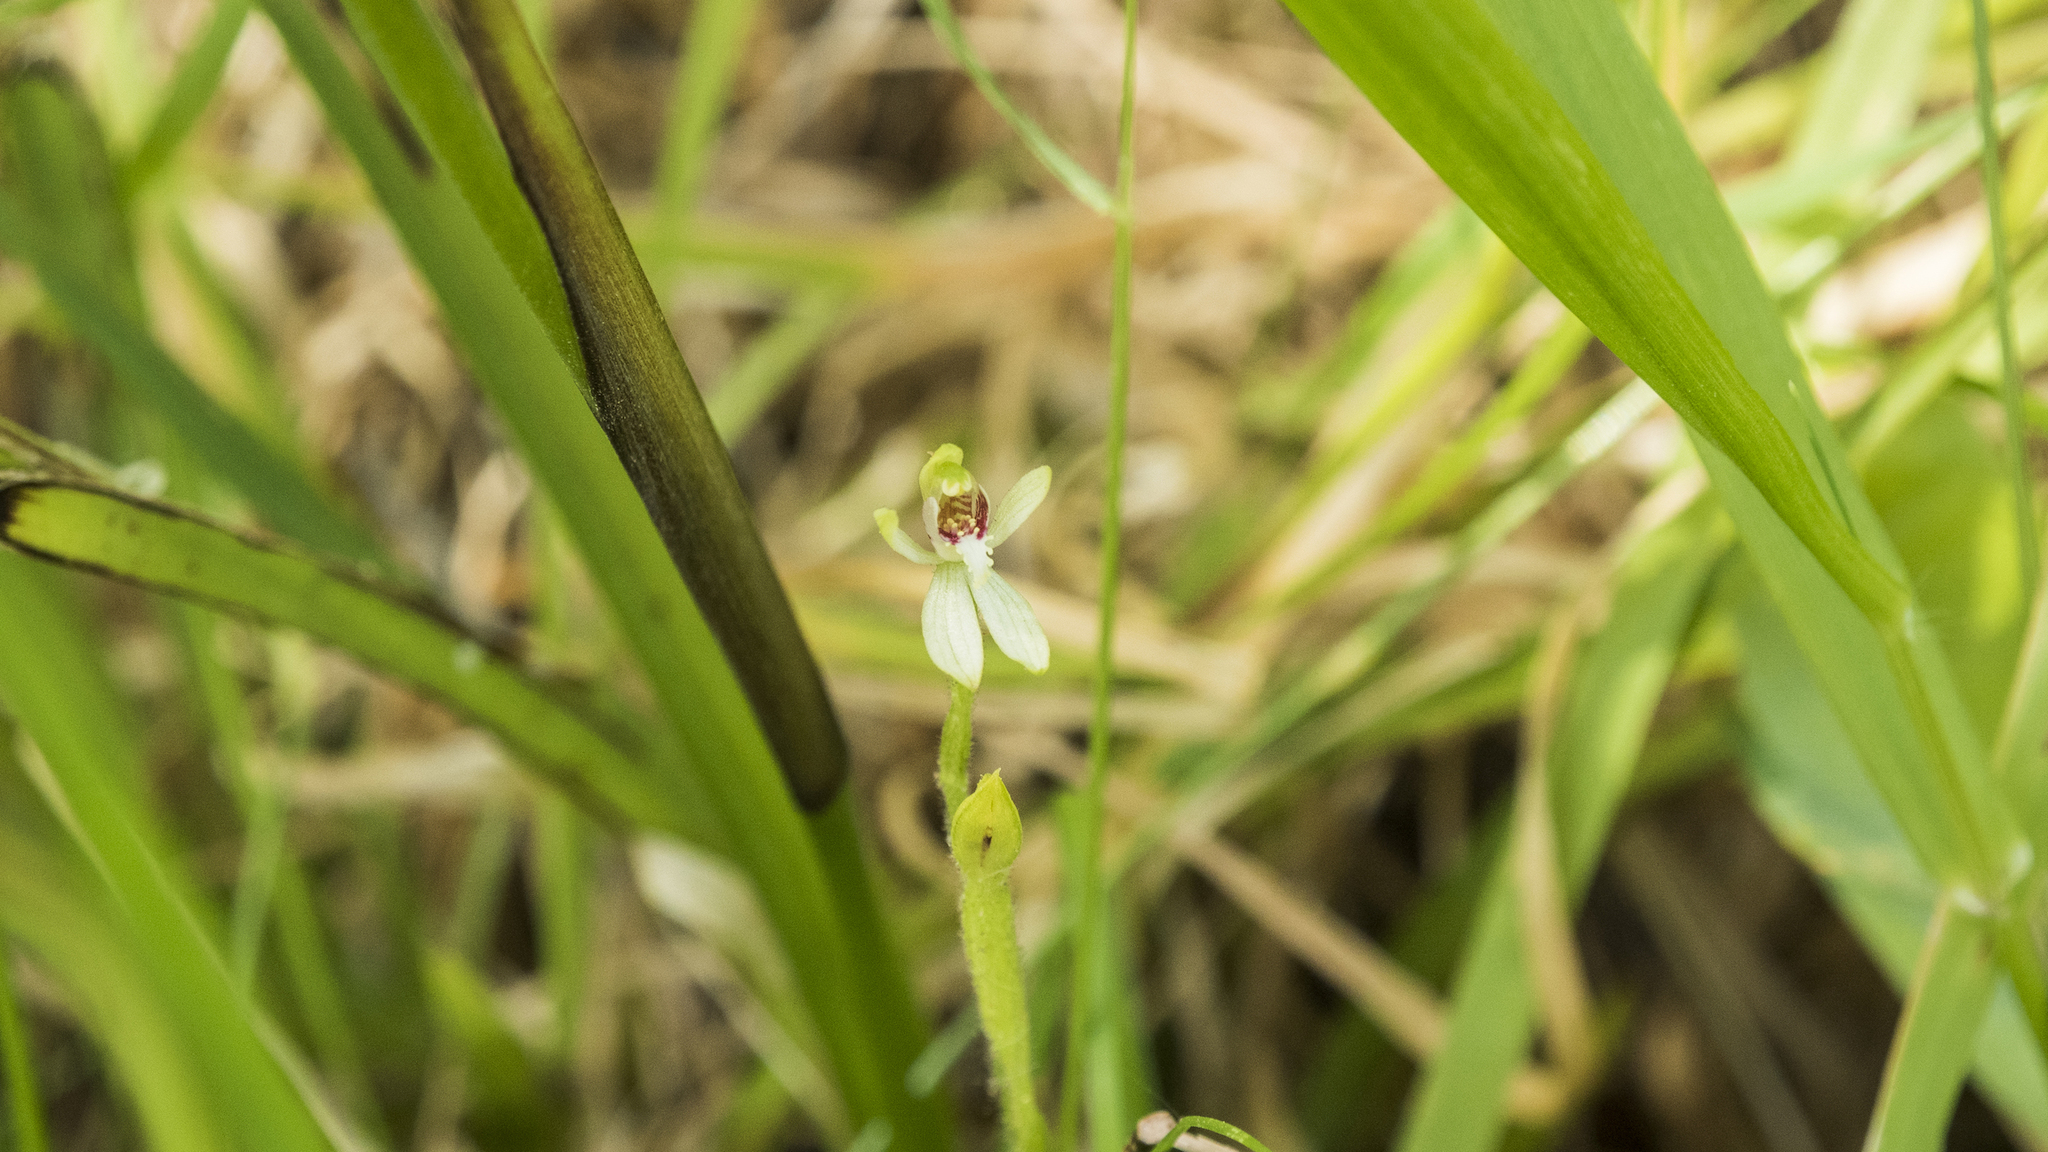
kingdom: Plantae
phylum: Tracheophyta
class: Liliopsida
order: Asparagales
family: Orchidaceae
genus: Caladenia
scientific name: Caladenia chlorostyla
